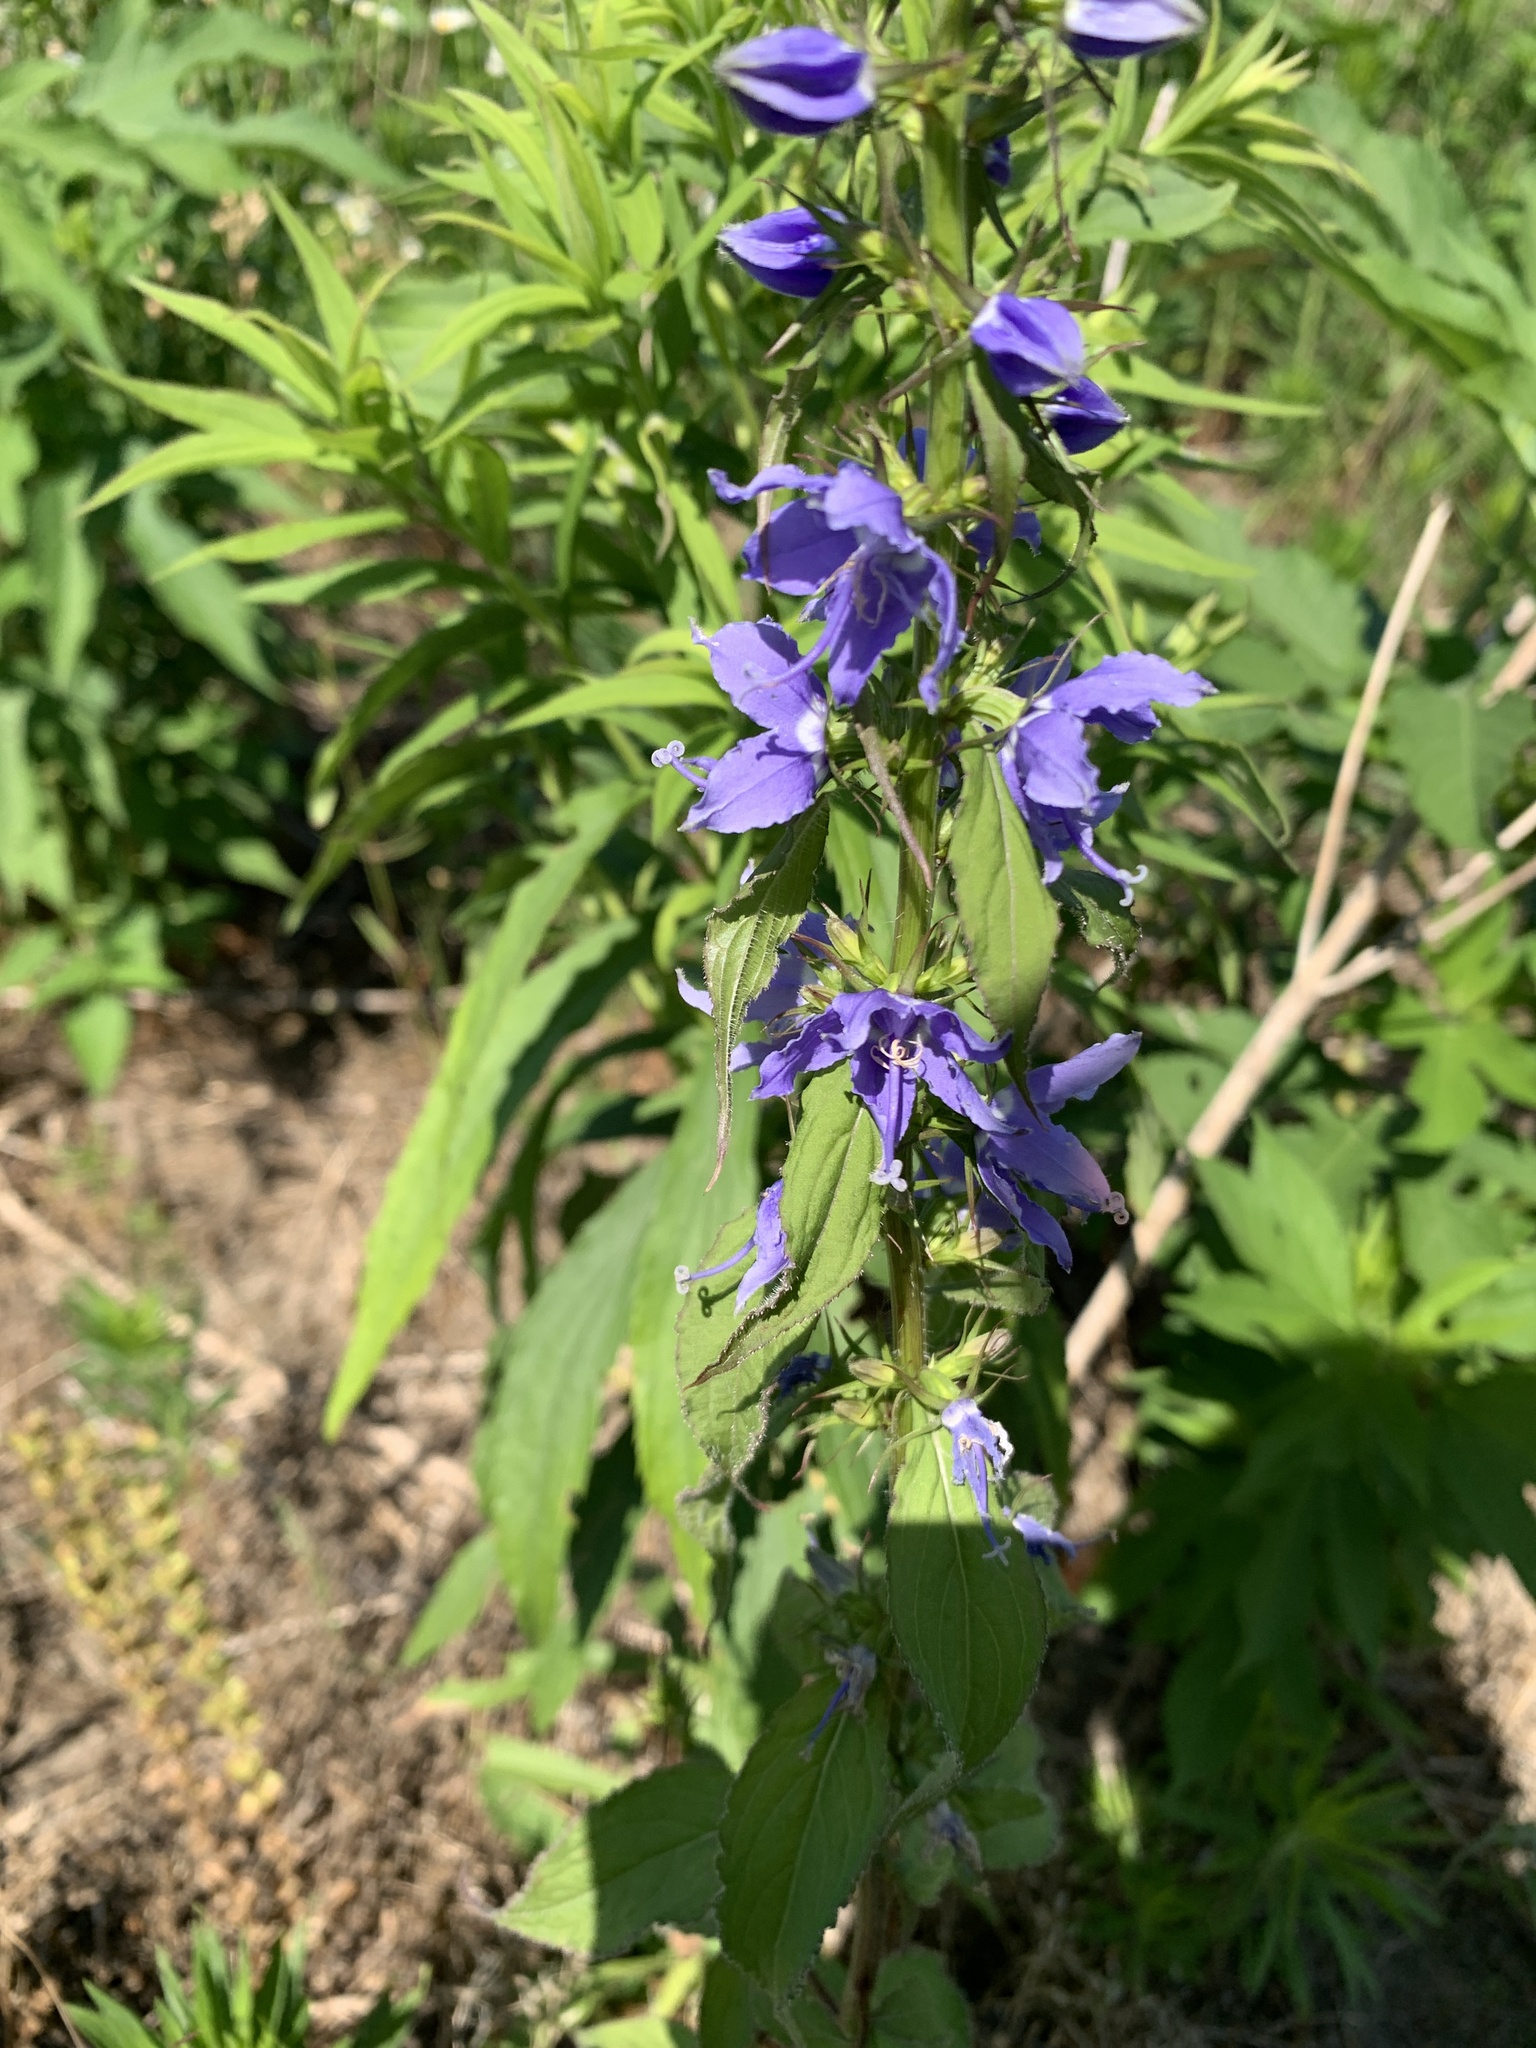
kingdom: Plantae
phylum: Tracheophyta
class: Magnoliopsida
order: Asterales
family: Campanulaceae
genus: Campanulastrum
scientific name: Campanulastrum americanum
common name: American bellflower
